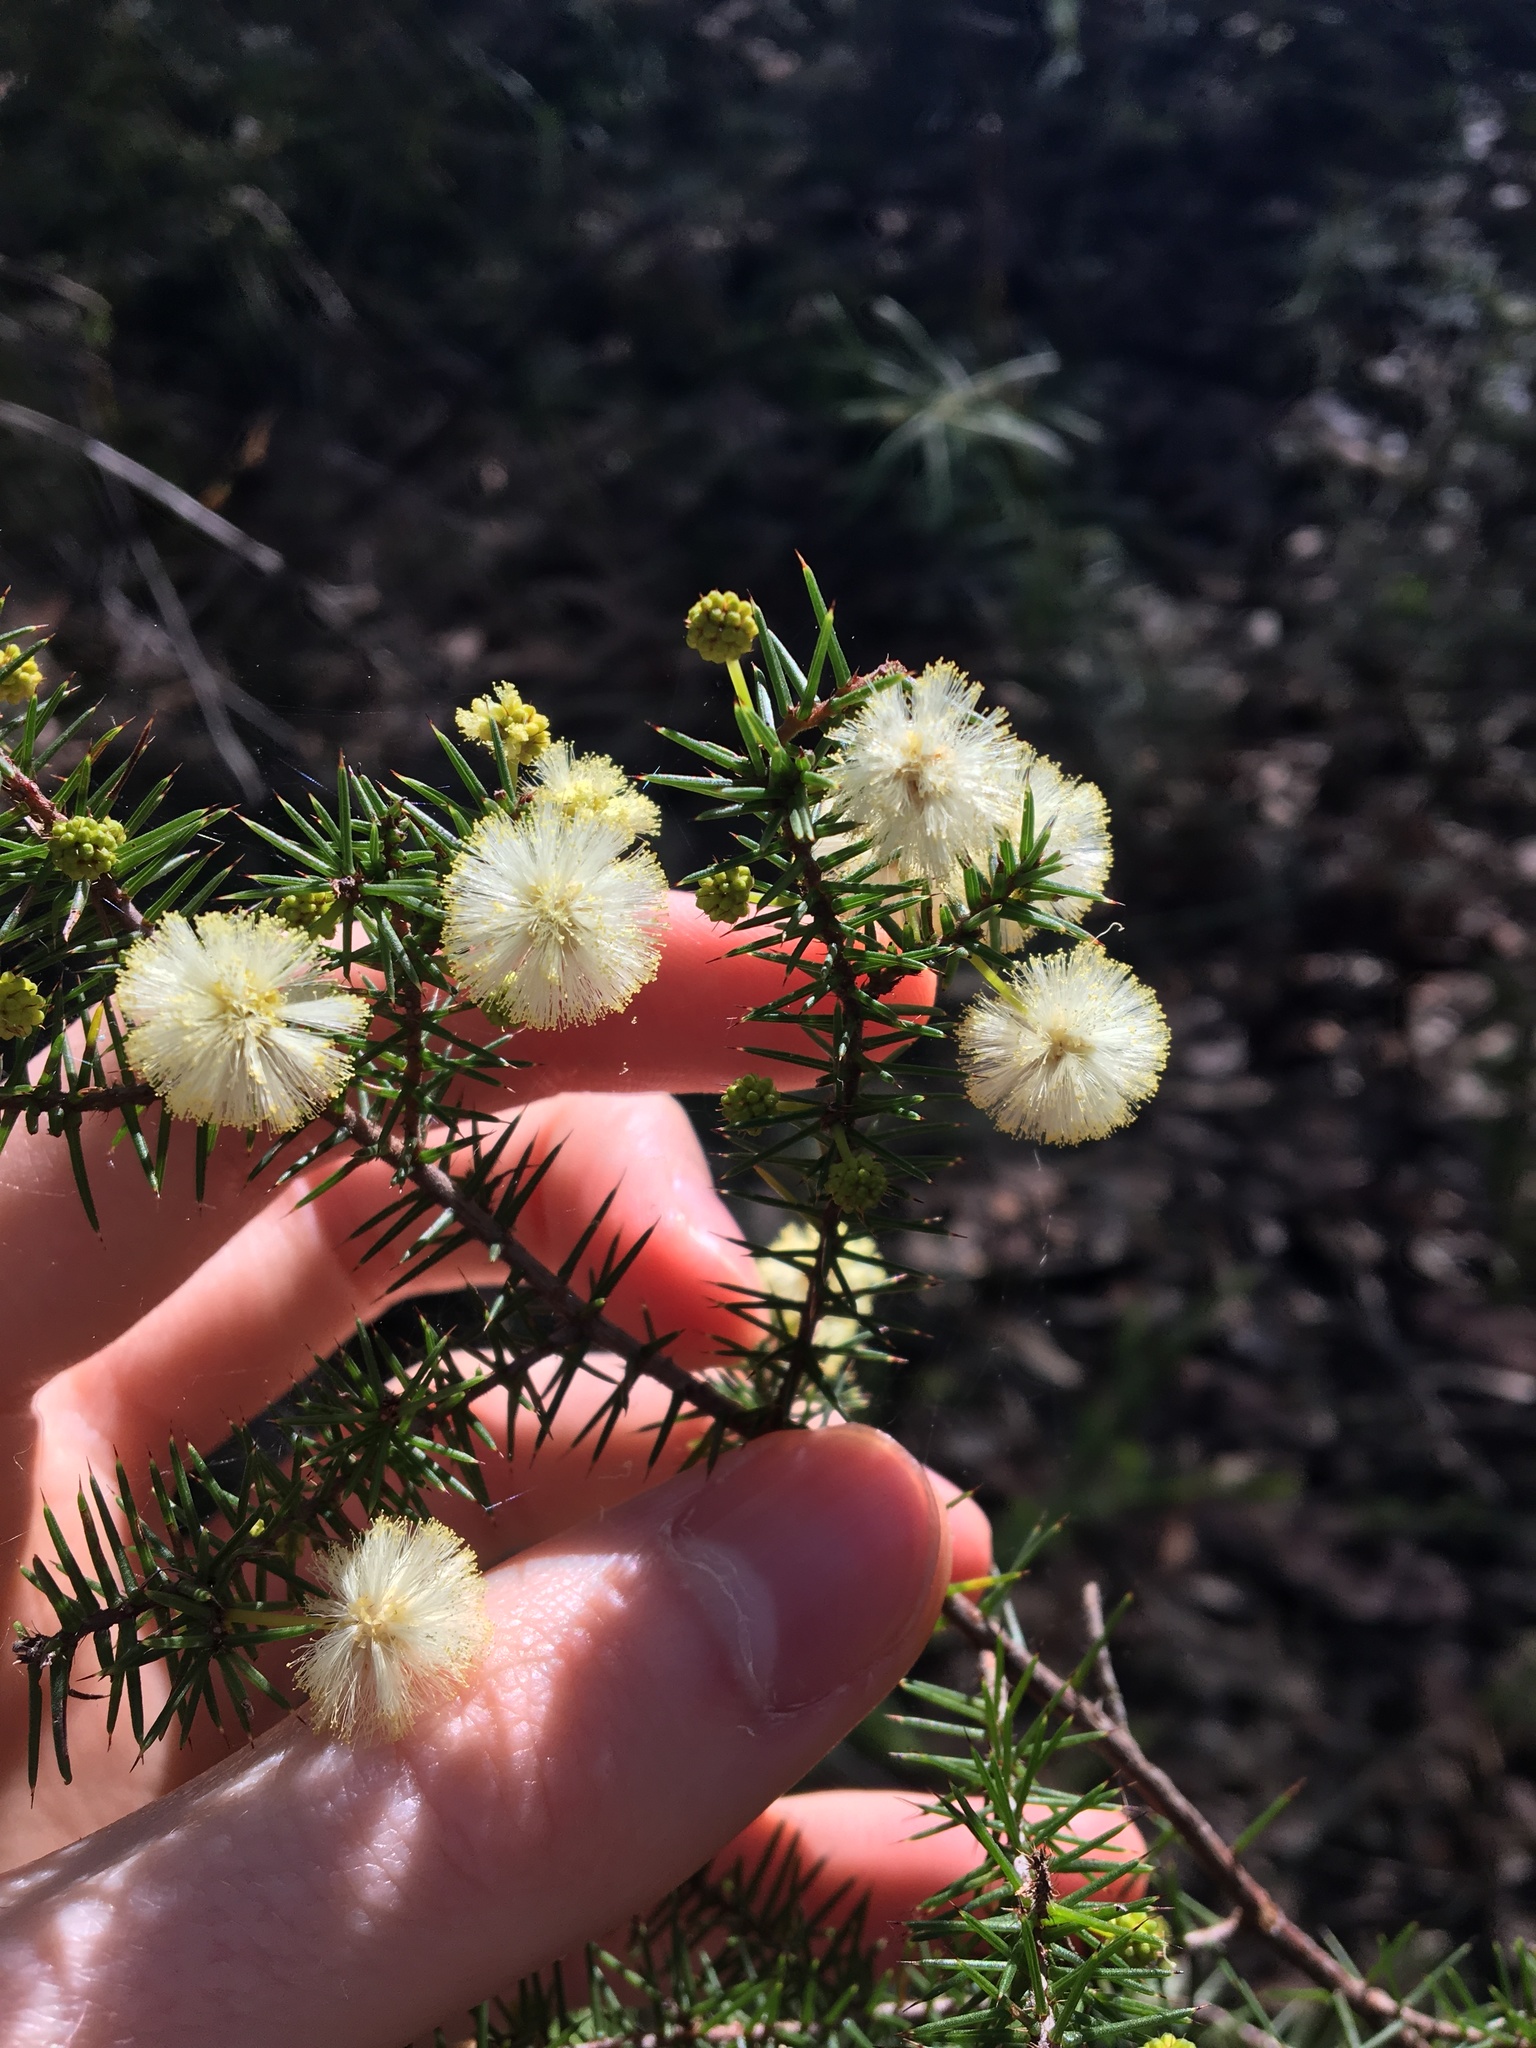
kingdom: Plantae
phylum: Tracheophyta
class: Magnoliopsida
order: Fabales
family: Fabaceae
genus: Acacia
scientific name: Acacia ulicifolia
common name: Juniper wattle
